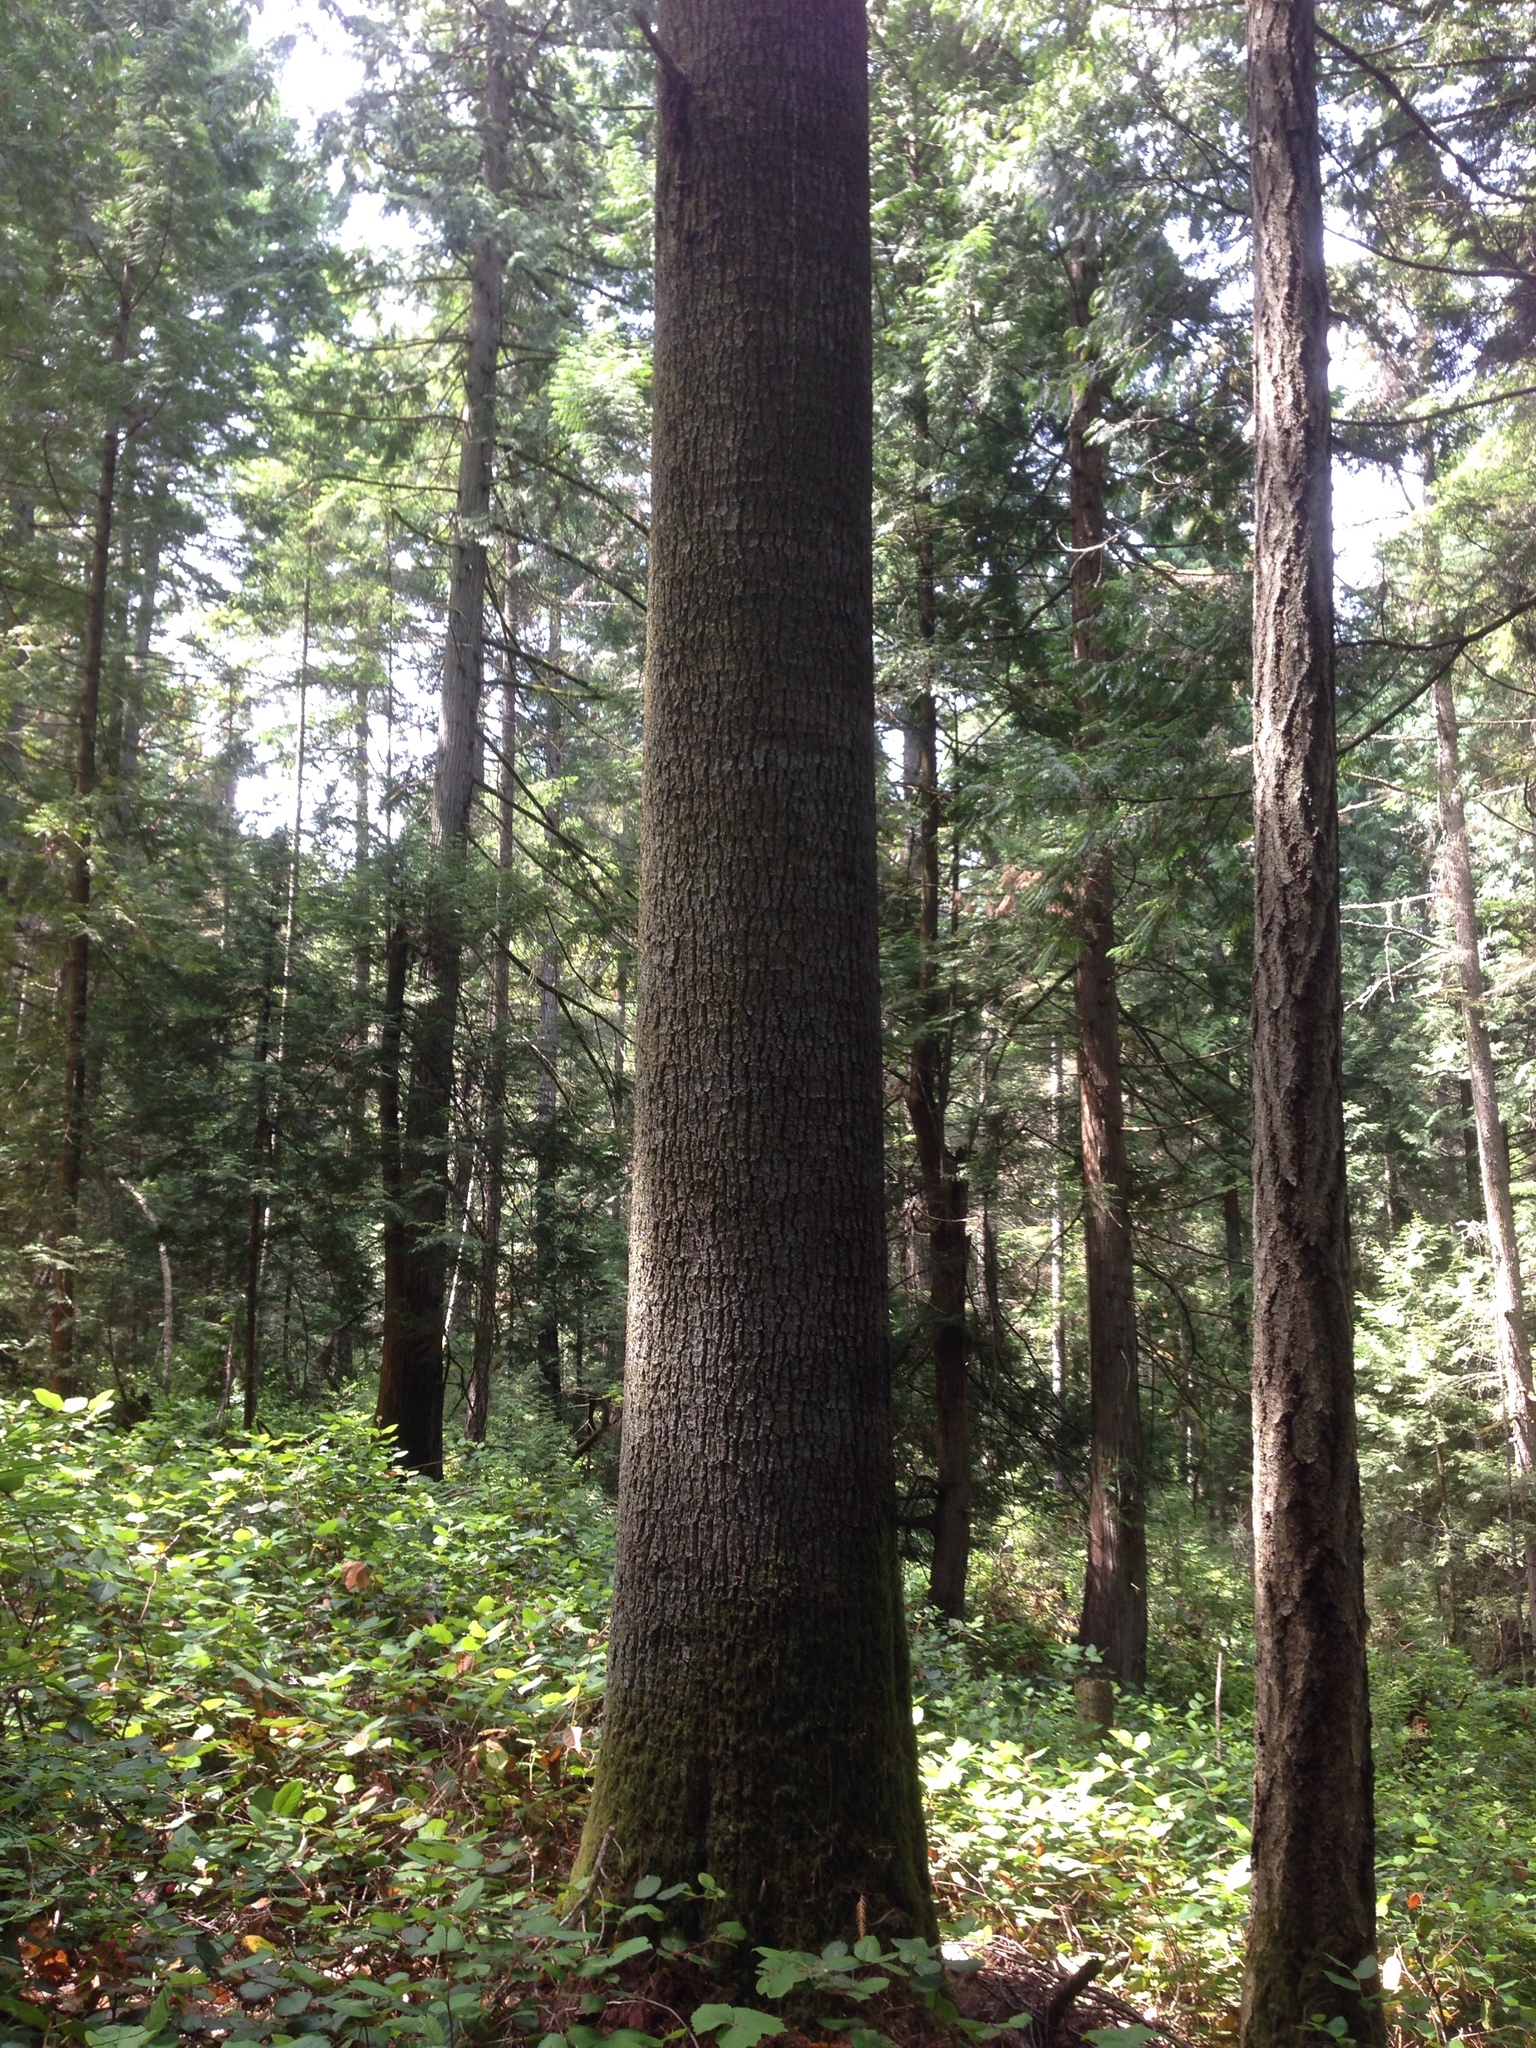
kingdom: Plantae
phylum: Tracheophyta
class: Pinopsida
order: Pinales
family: Pinaceae
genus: Pinus
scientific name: Pinus monticola
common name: Western white pine
